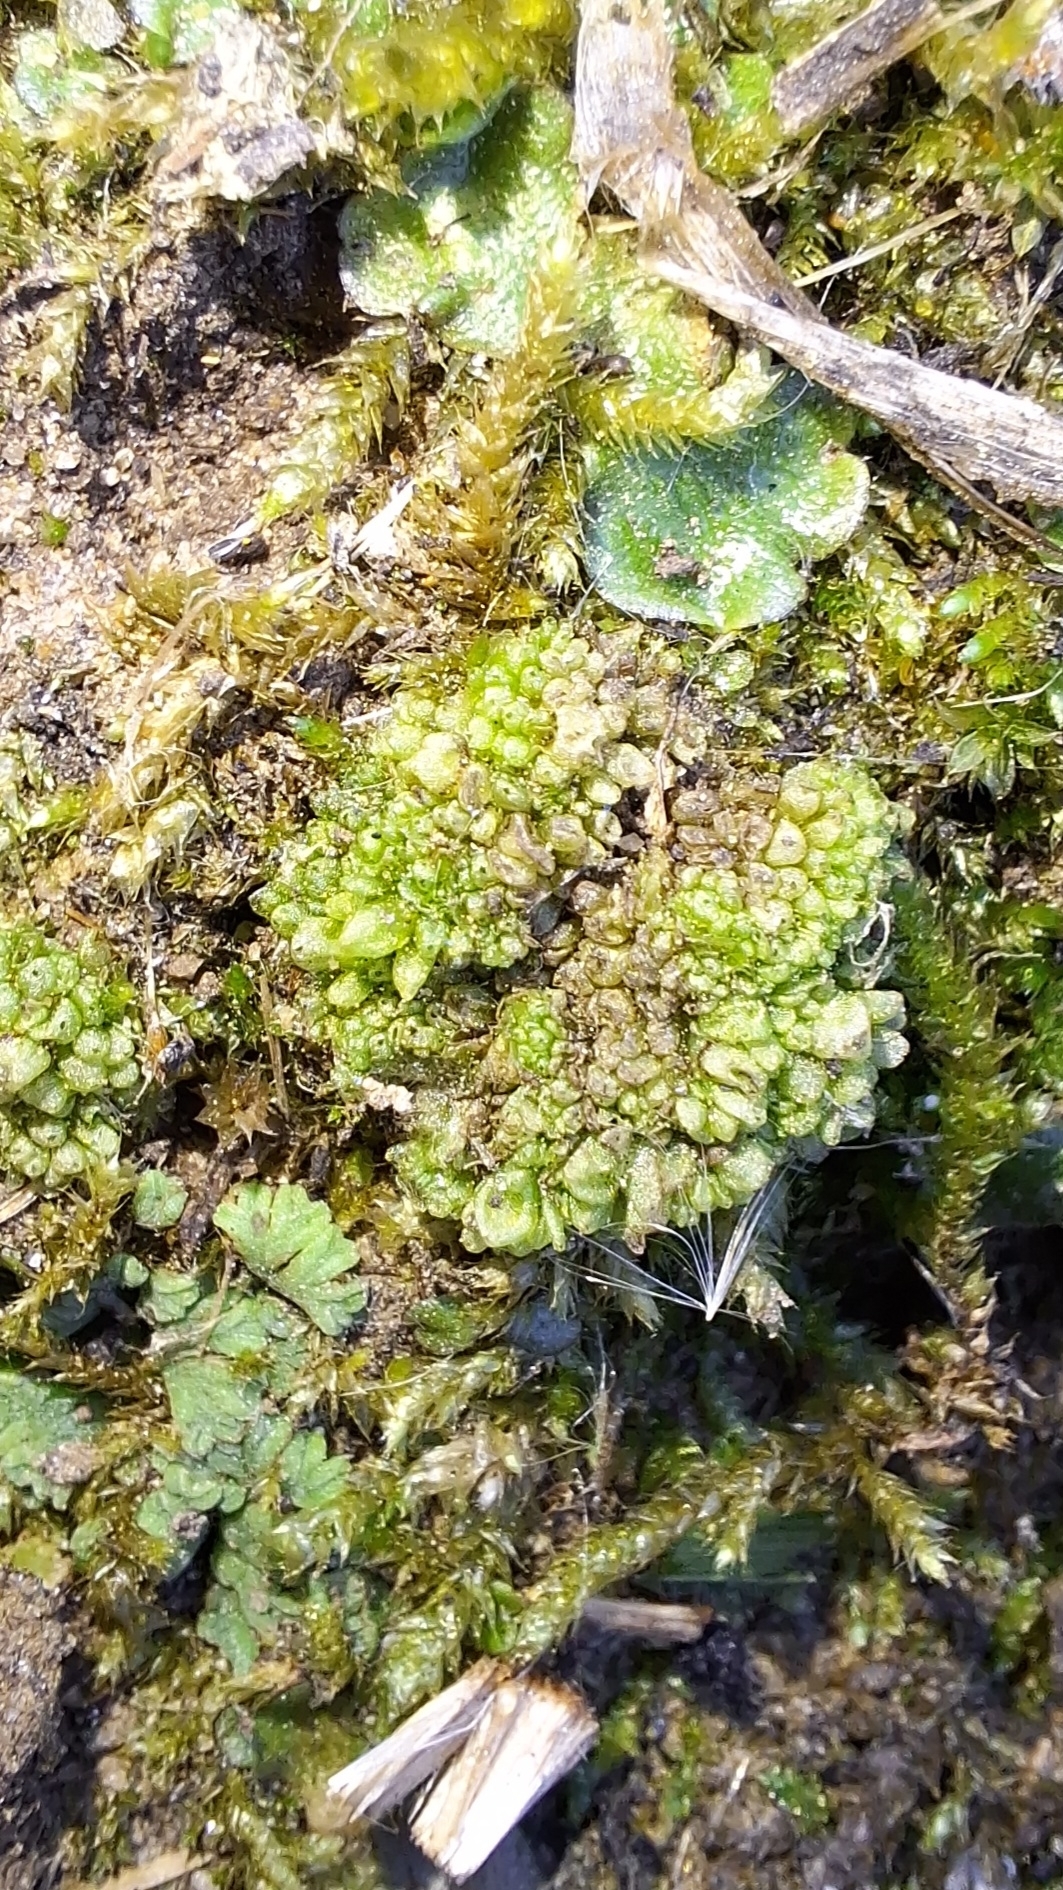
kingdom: Plantae
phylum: Marchantiophyta
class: Marchantiopsida
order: Sphaerocarpales
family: Sphaerocarpaceae
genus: Sphaerocarpos
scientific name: Sphaerocarpos texanus
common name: Texas balloonwort
